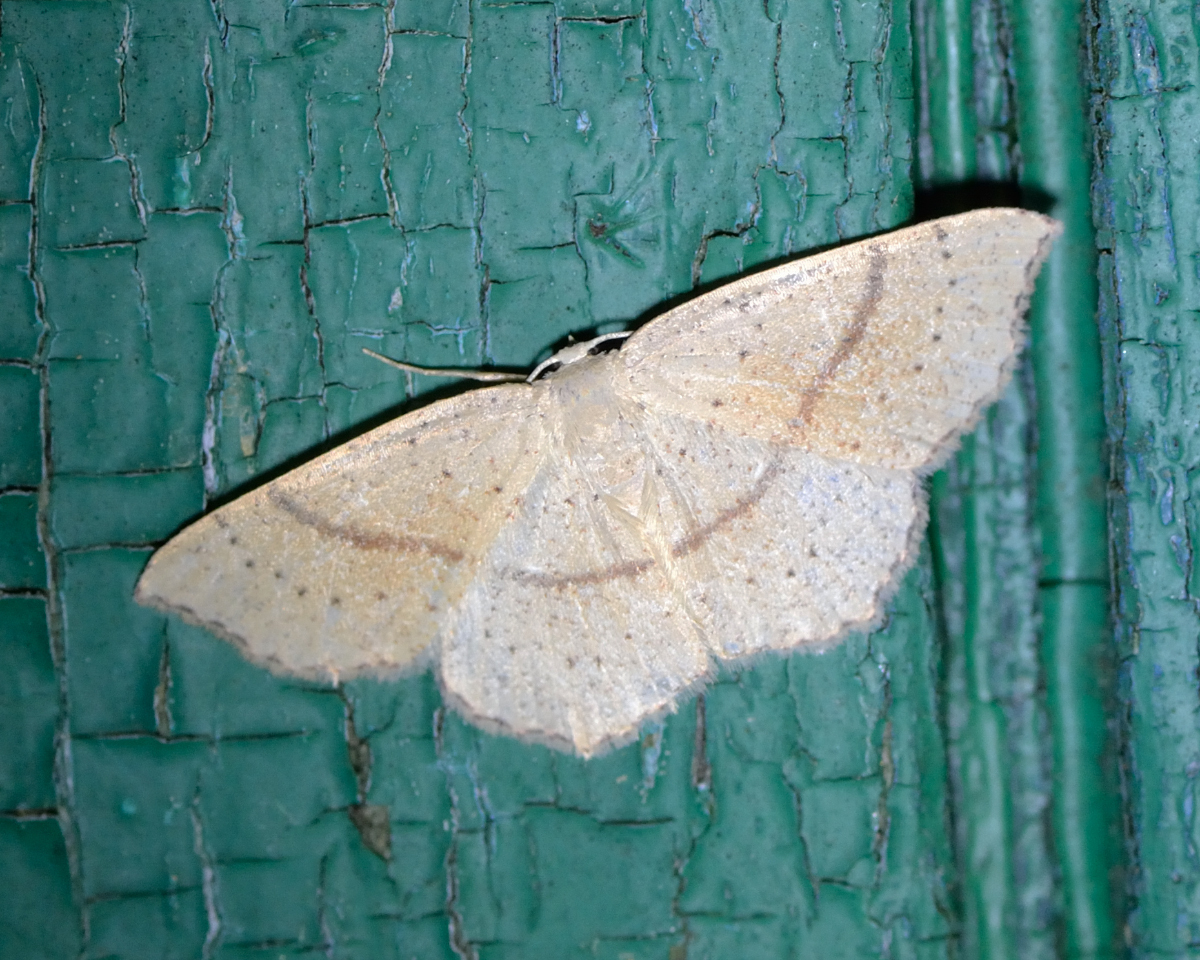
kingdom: Animalia
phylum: Arthropoda
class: Insecta
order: Lepidoptera
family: Geometridae
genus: Cyclophora
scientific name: Cyclophora punctaria
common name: Maiden's blush
